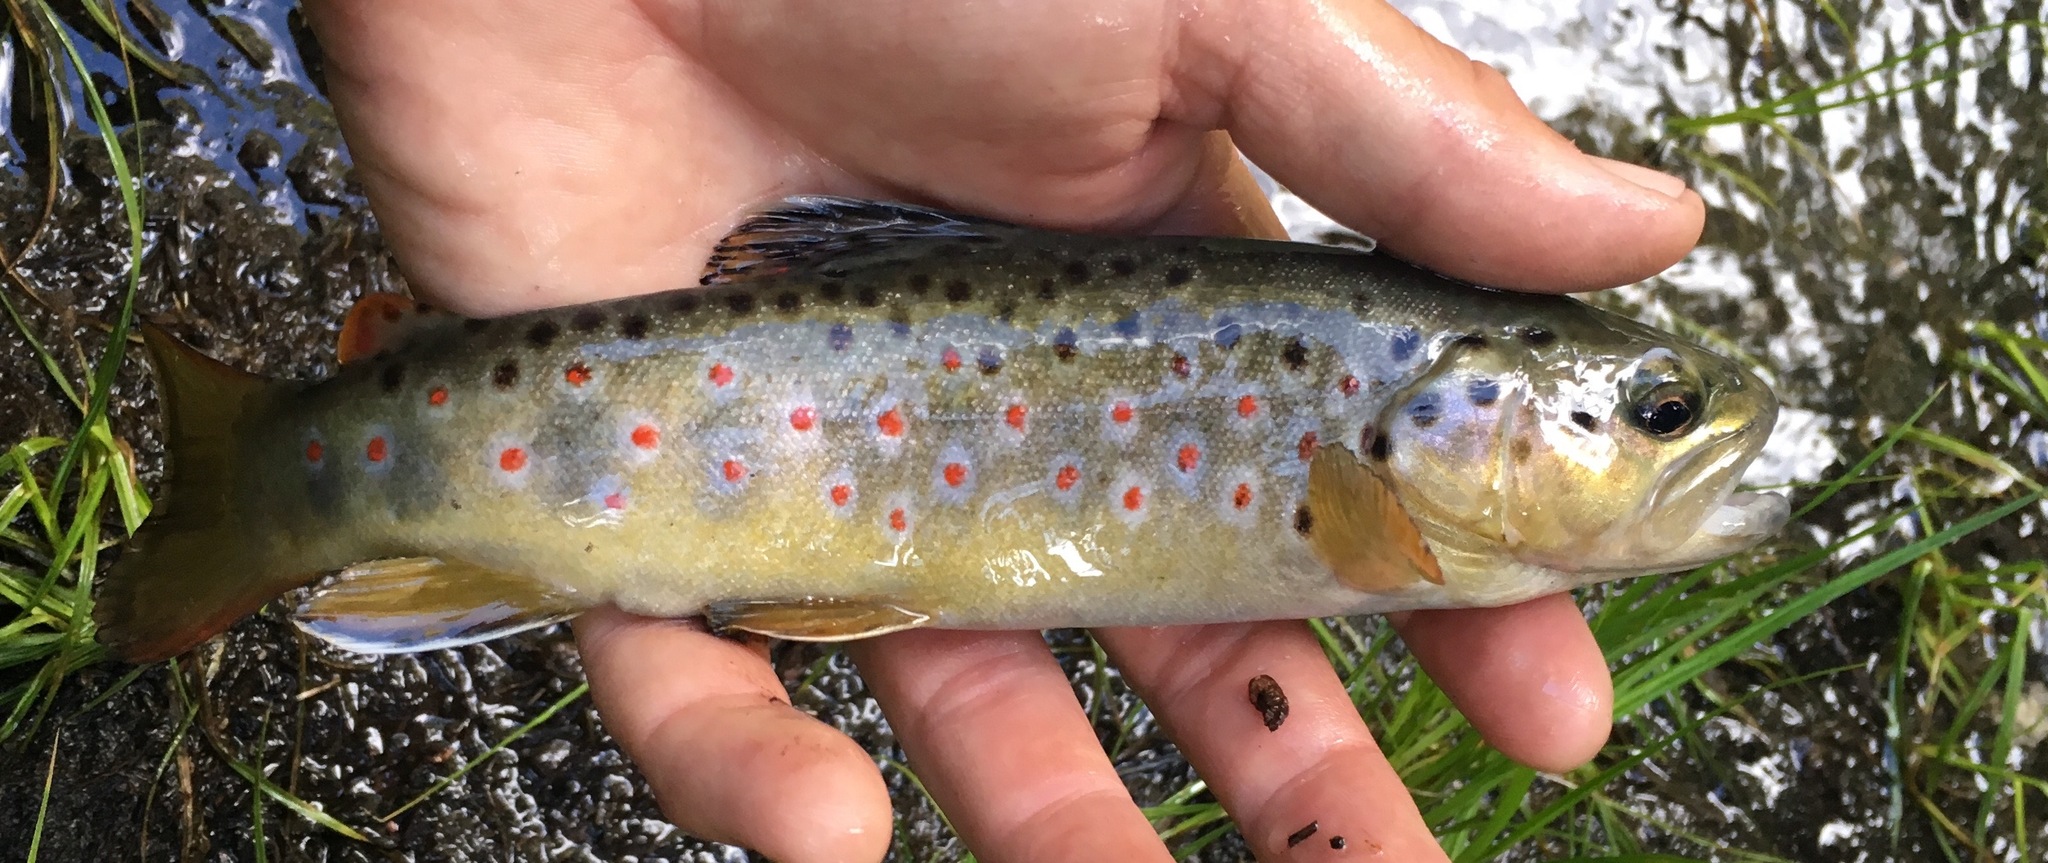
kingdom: Animalia
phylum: Chordata
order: Salmoniformes
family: Salmonidae
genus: Salmo
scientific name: Salmo trutta
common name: Brown trout
